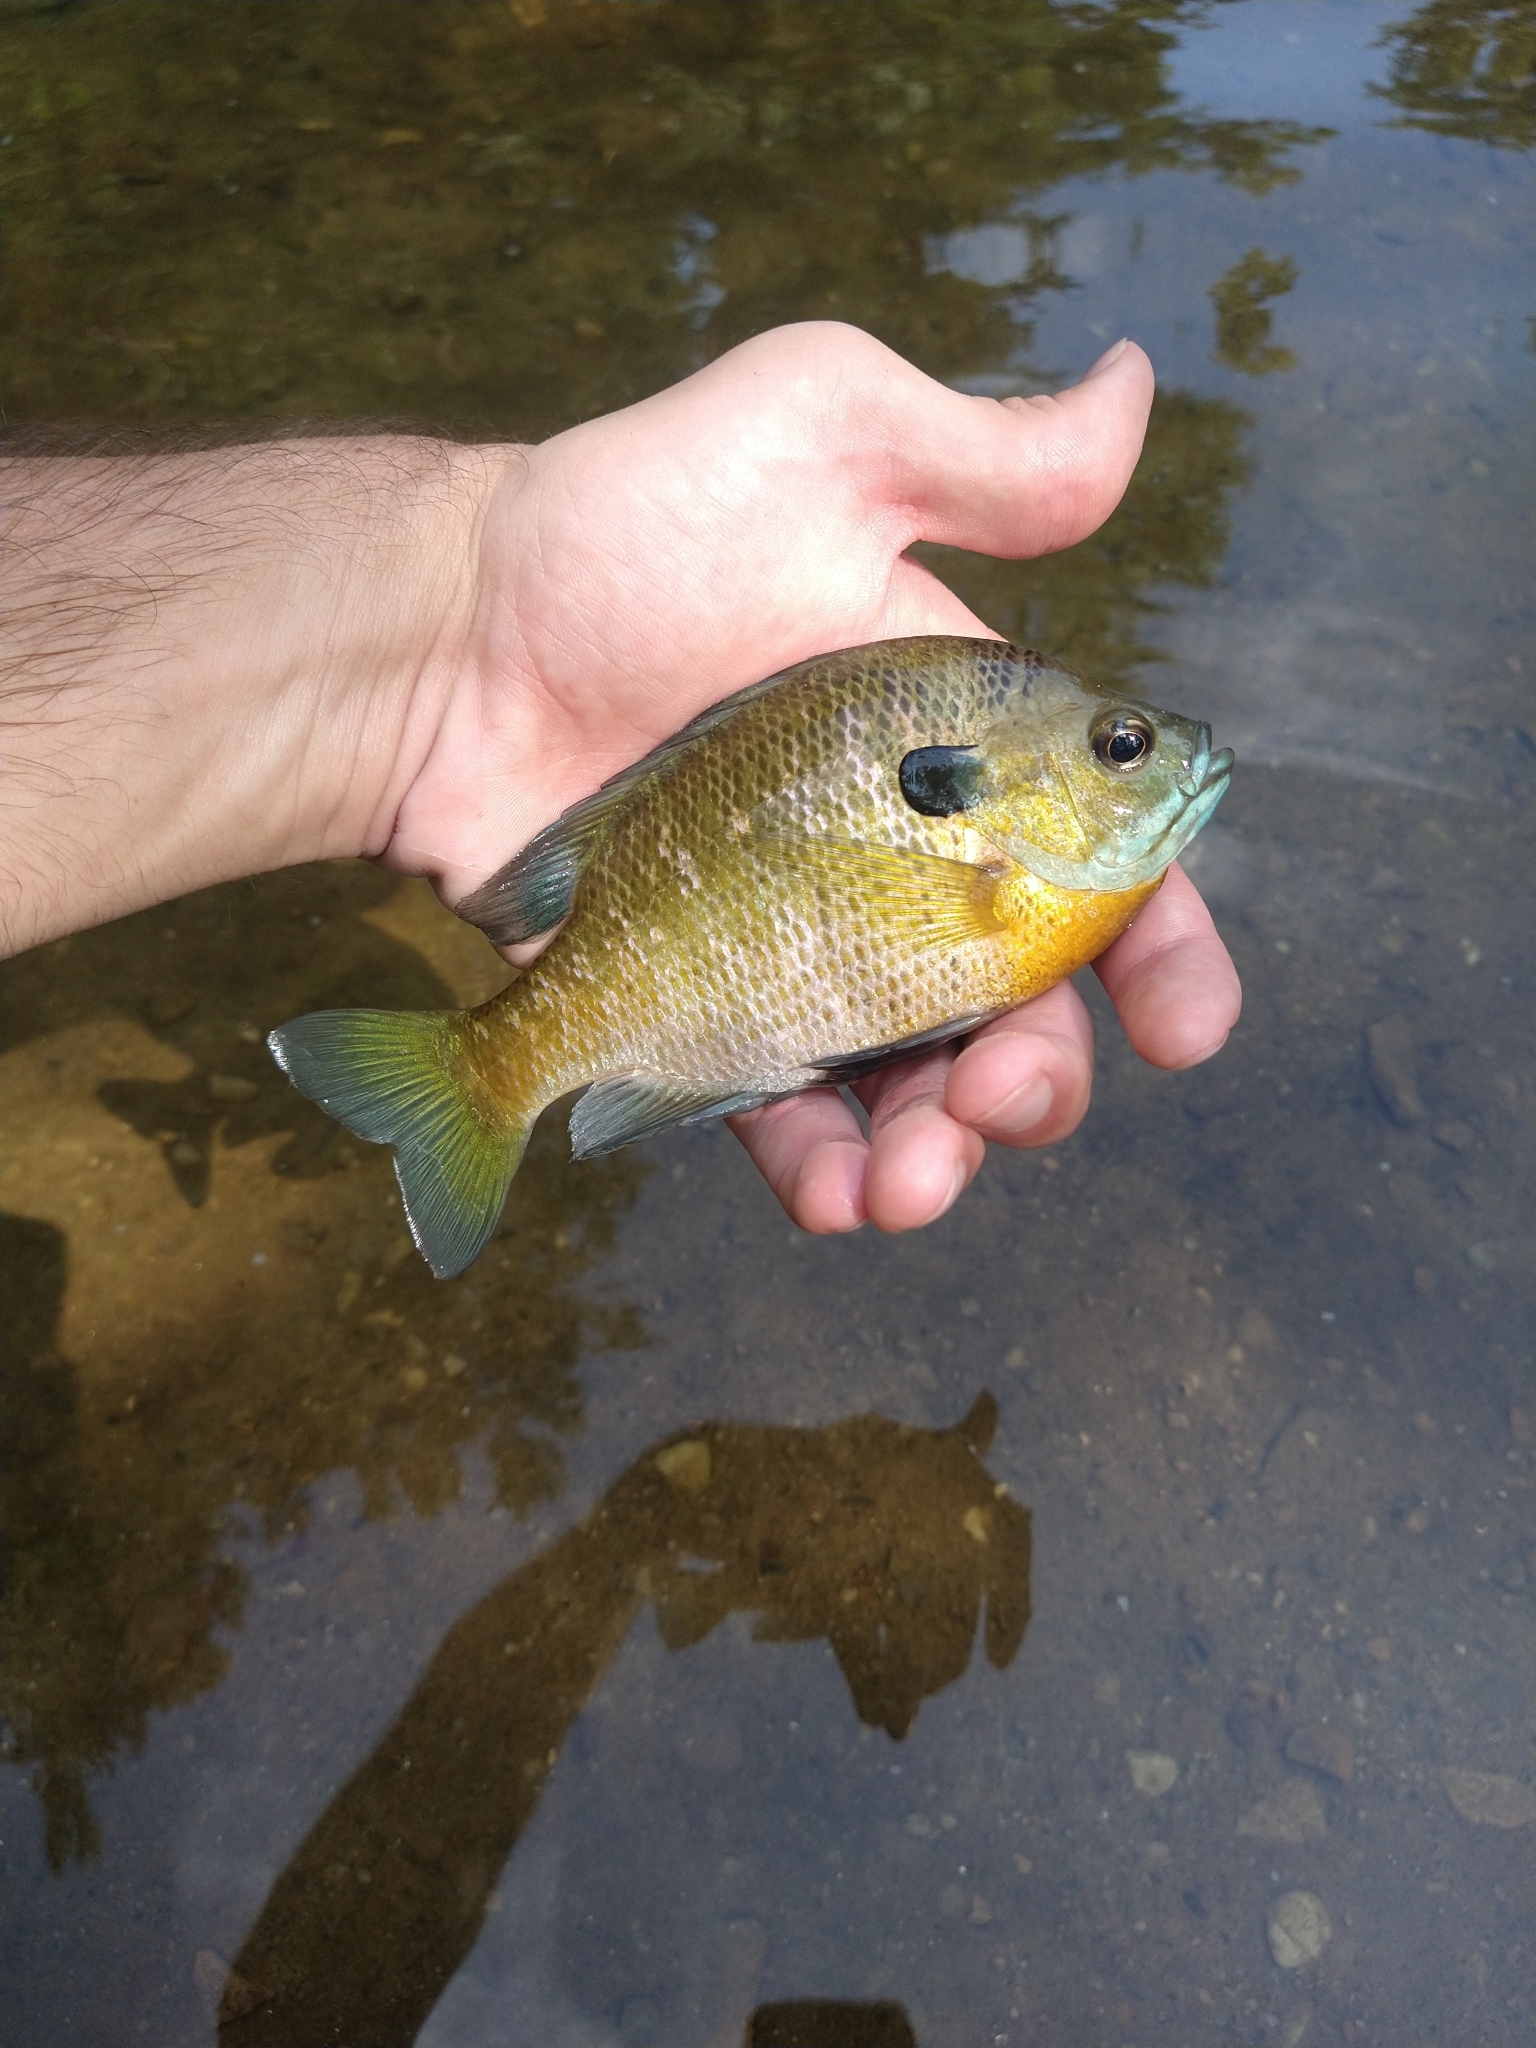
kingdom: Animalia
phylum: Chordata
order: Perciformes
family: Centrarchidae
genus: Lepomis
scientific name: Lepomis macrochirus
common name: Bluegill
